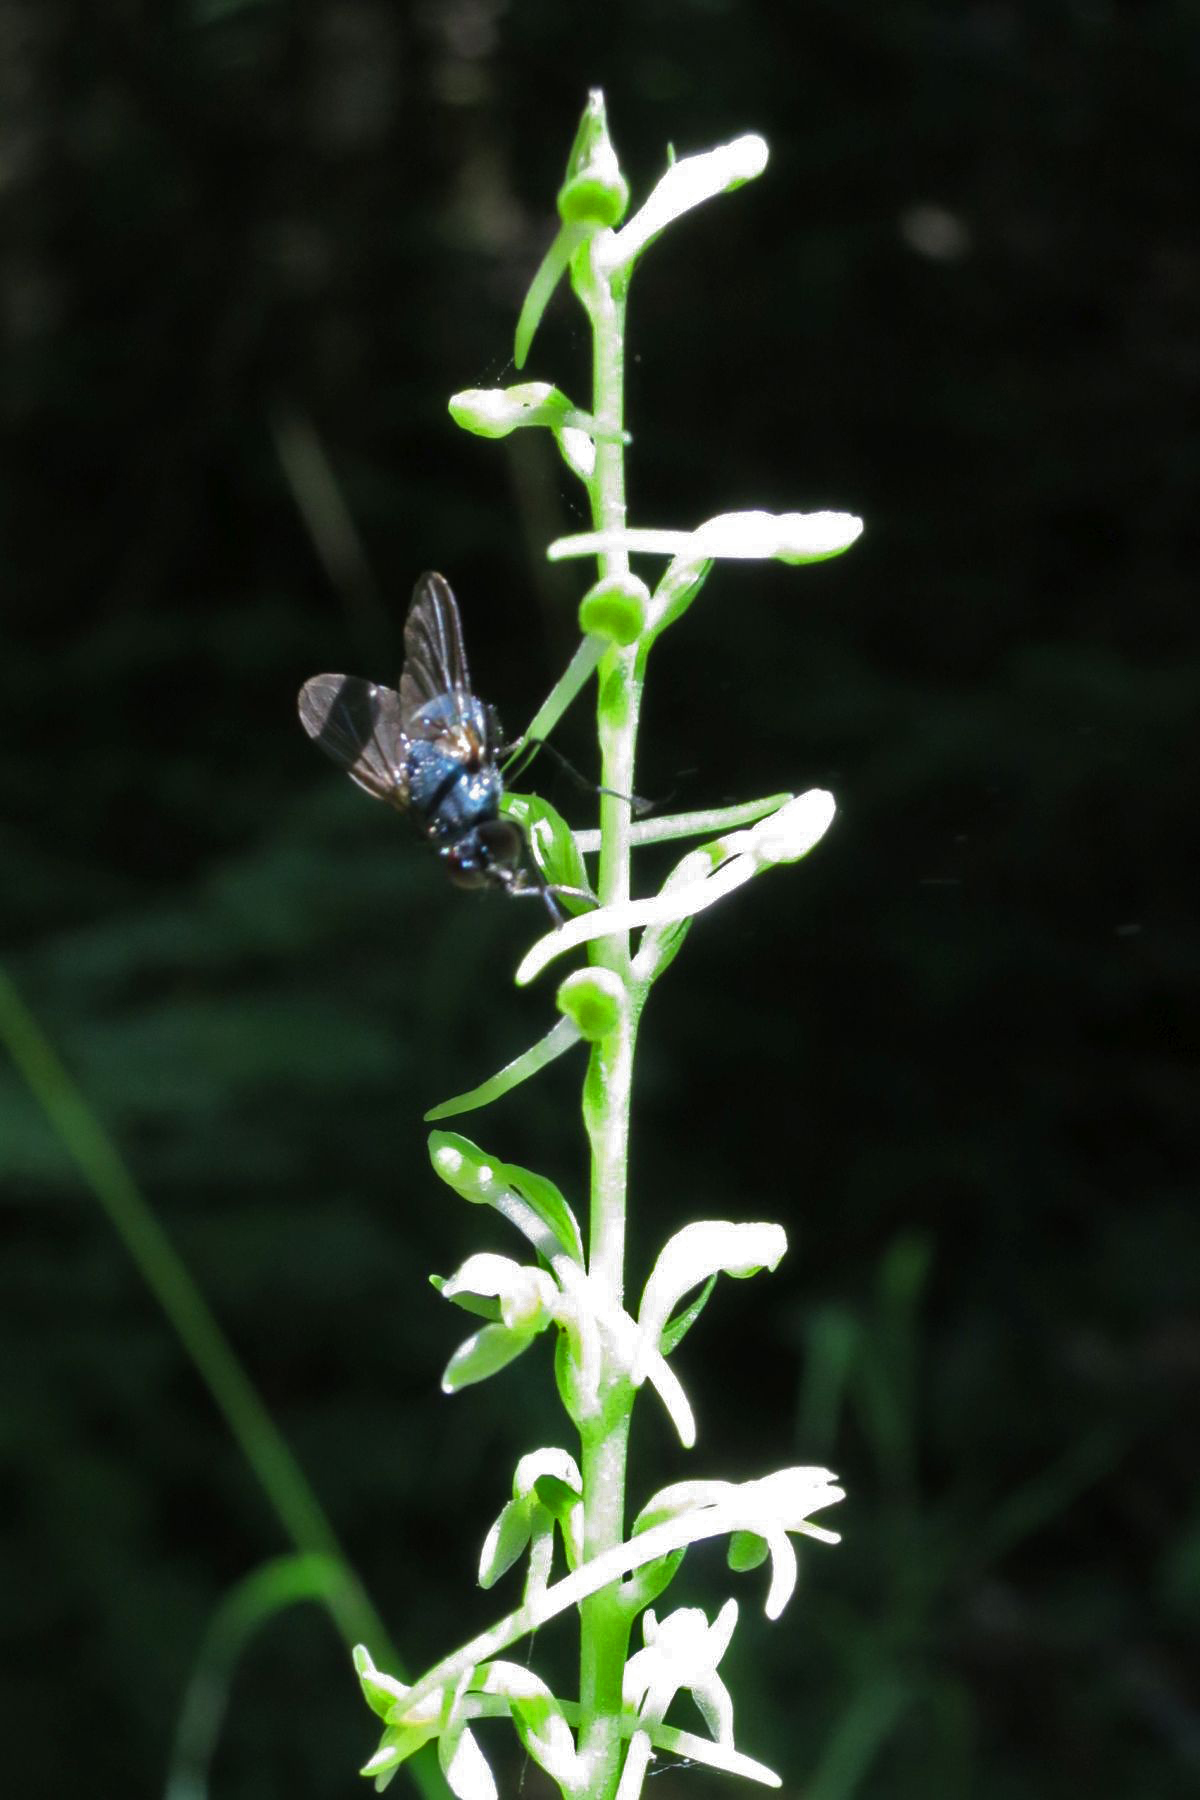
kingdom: Plantae
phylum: Tracheophyta
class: Liliopsida
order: Asparagales
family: Orchidaceae
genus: Platanthera
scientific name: Platanthera elongata
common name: Dense-flowered rein orchid
